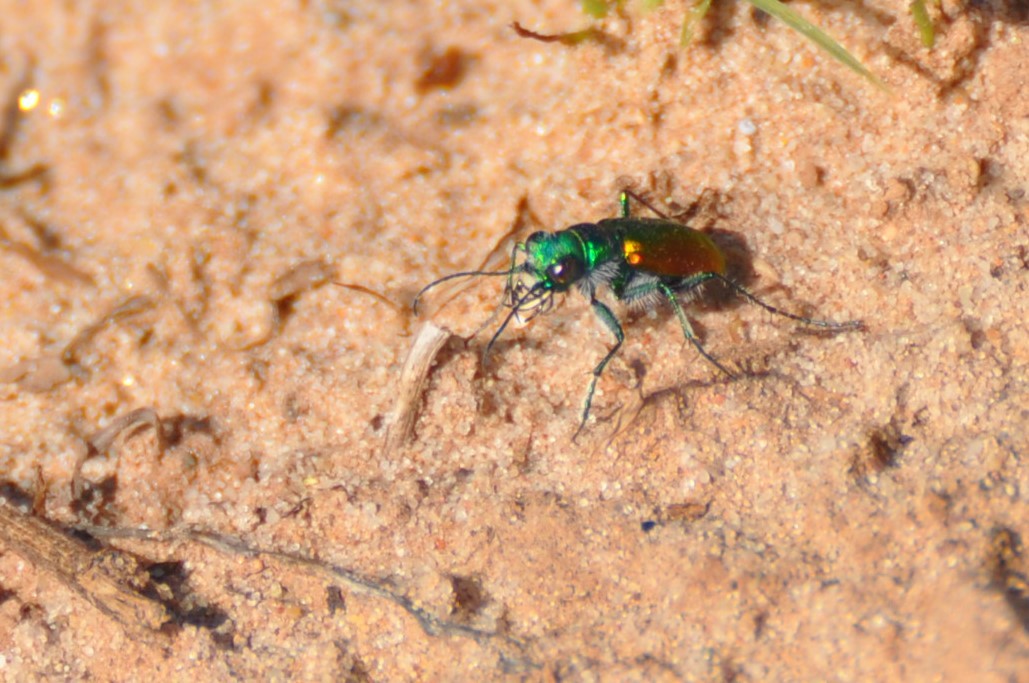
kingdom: Animalia
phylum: Arthropoda
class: Insecta
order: Coleoptera
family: Carabidae
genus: Cicindela
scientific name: Cicindela scutellaris
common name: Festive tiger beetle
